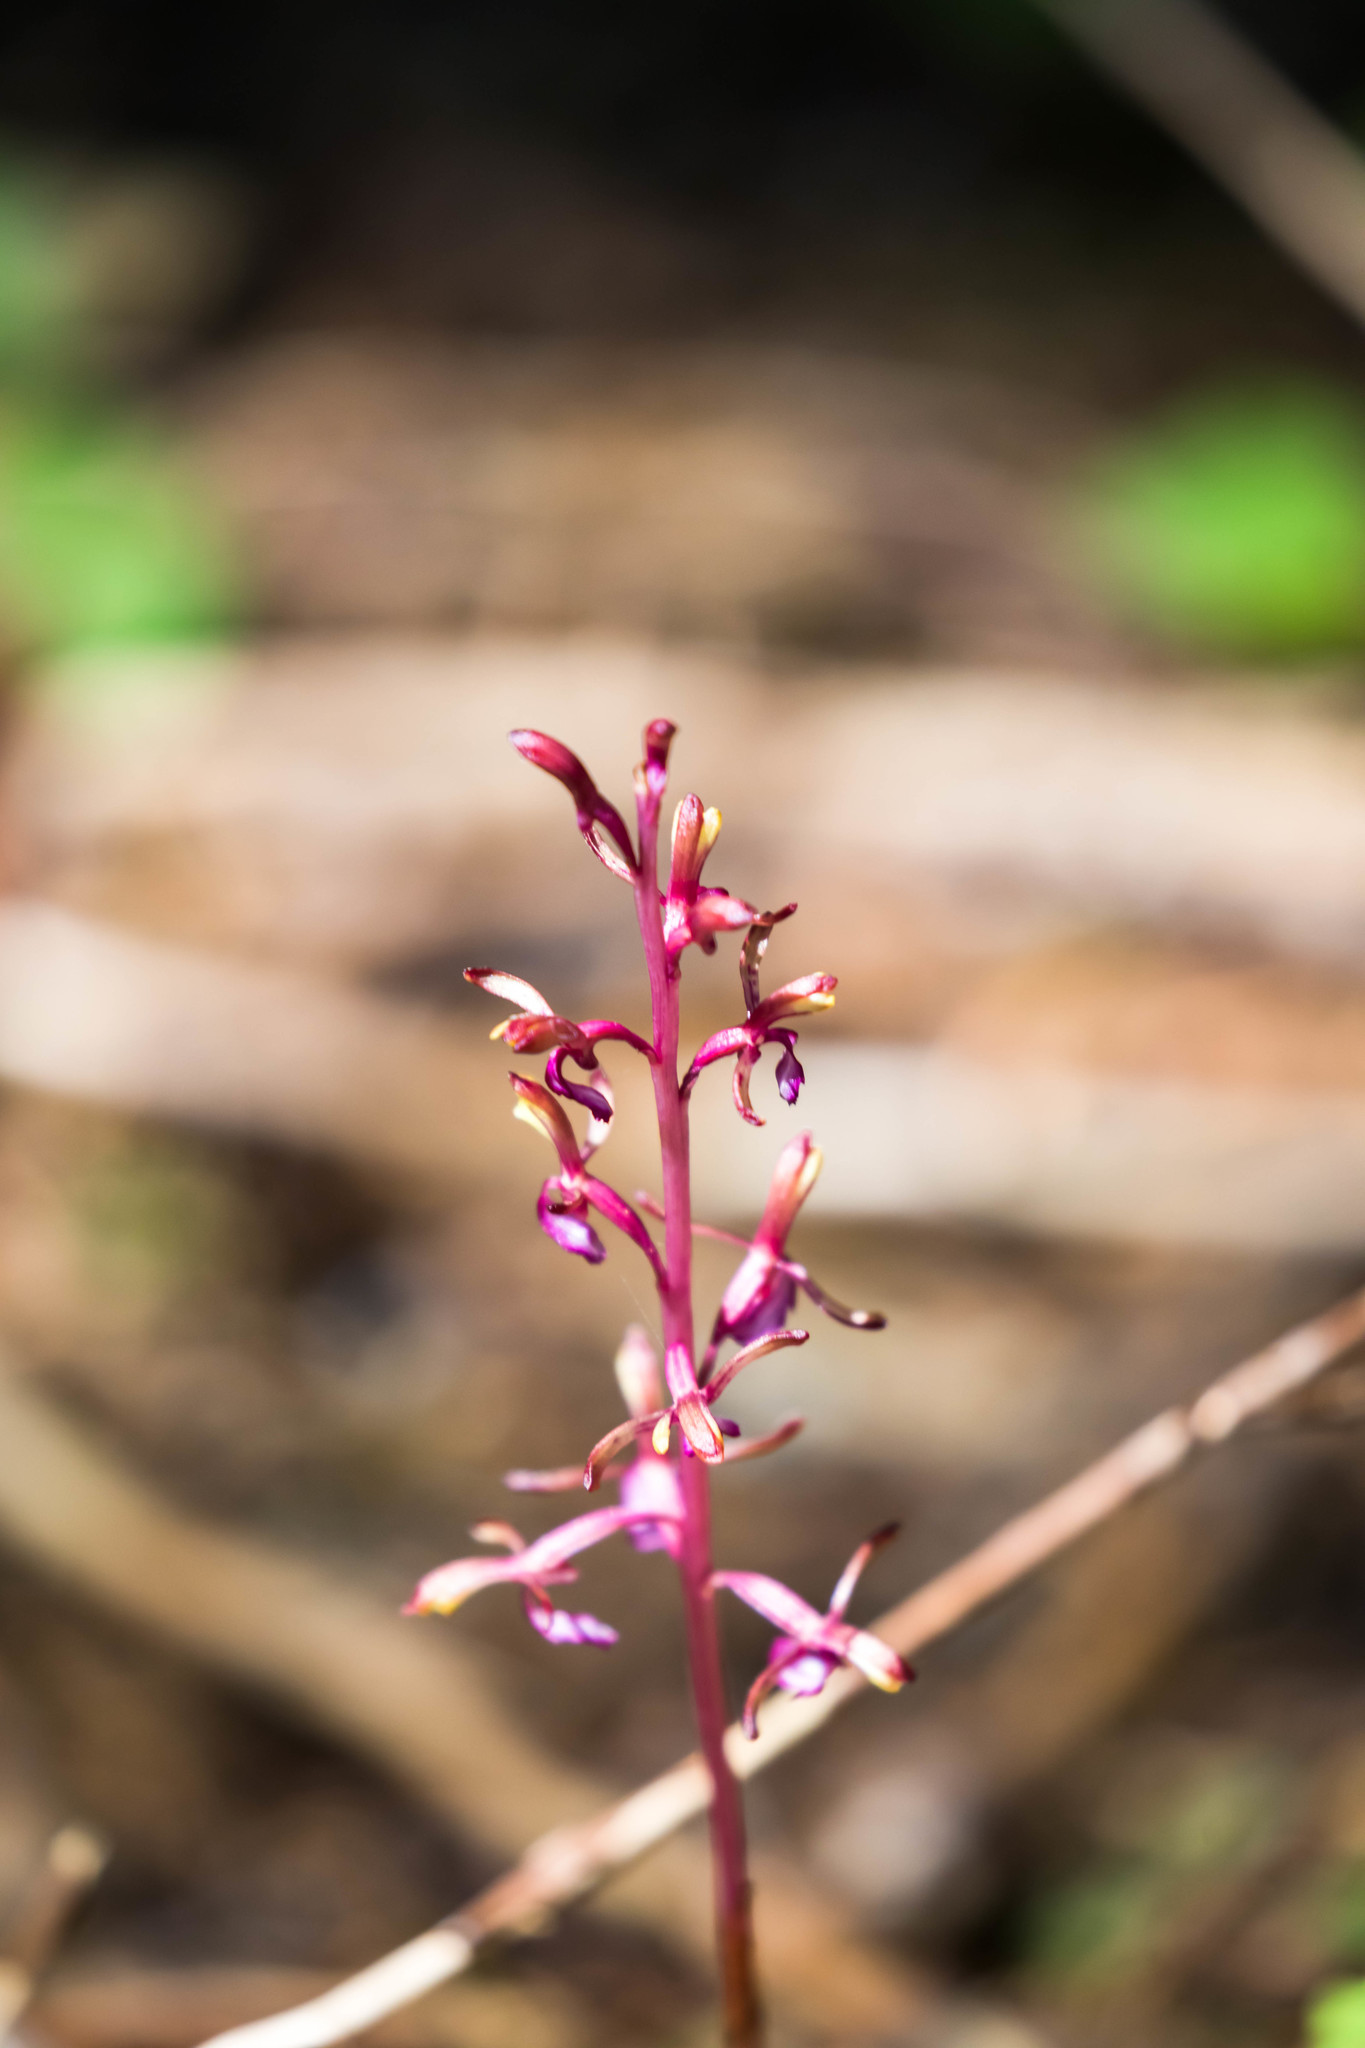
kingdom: Plantae
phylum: Tracheophyta
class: Liliopsida
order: Asparagales
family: Orchidaceae
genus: Corallorhiza
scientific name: Corallorhiza mertensiana
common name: Pacific coralroot
